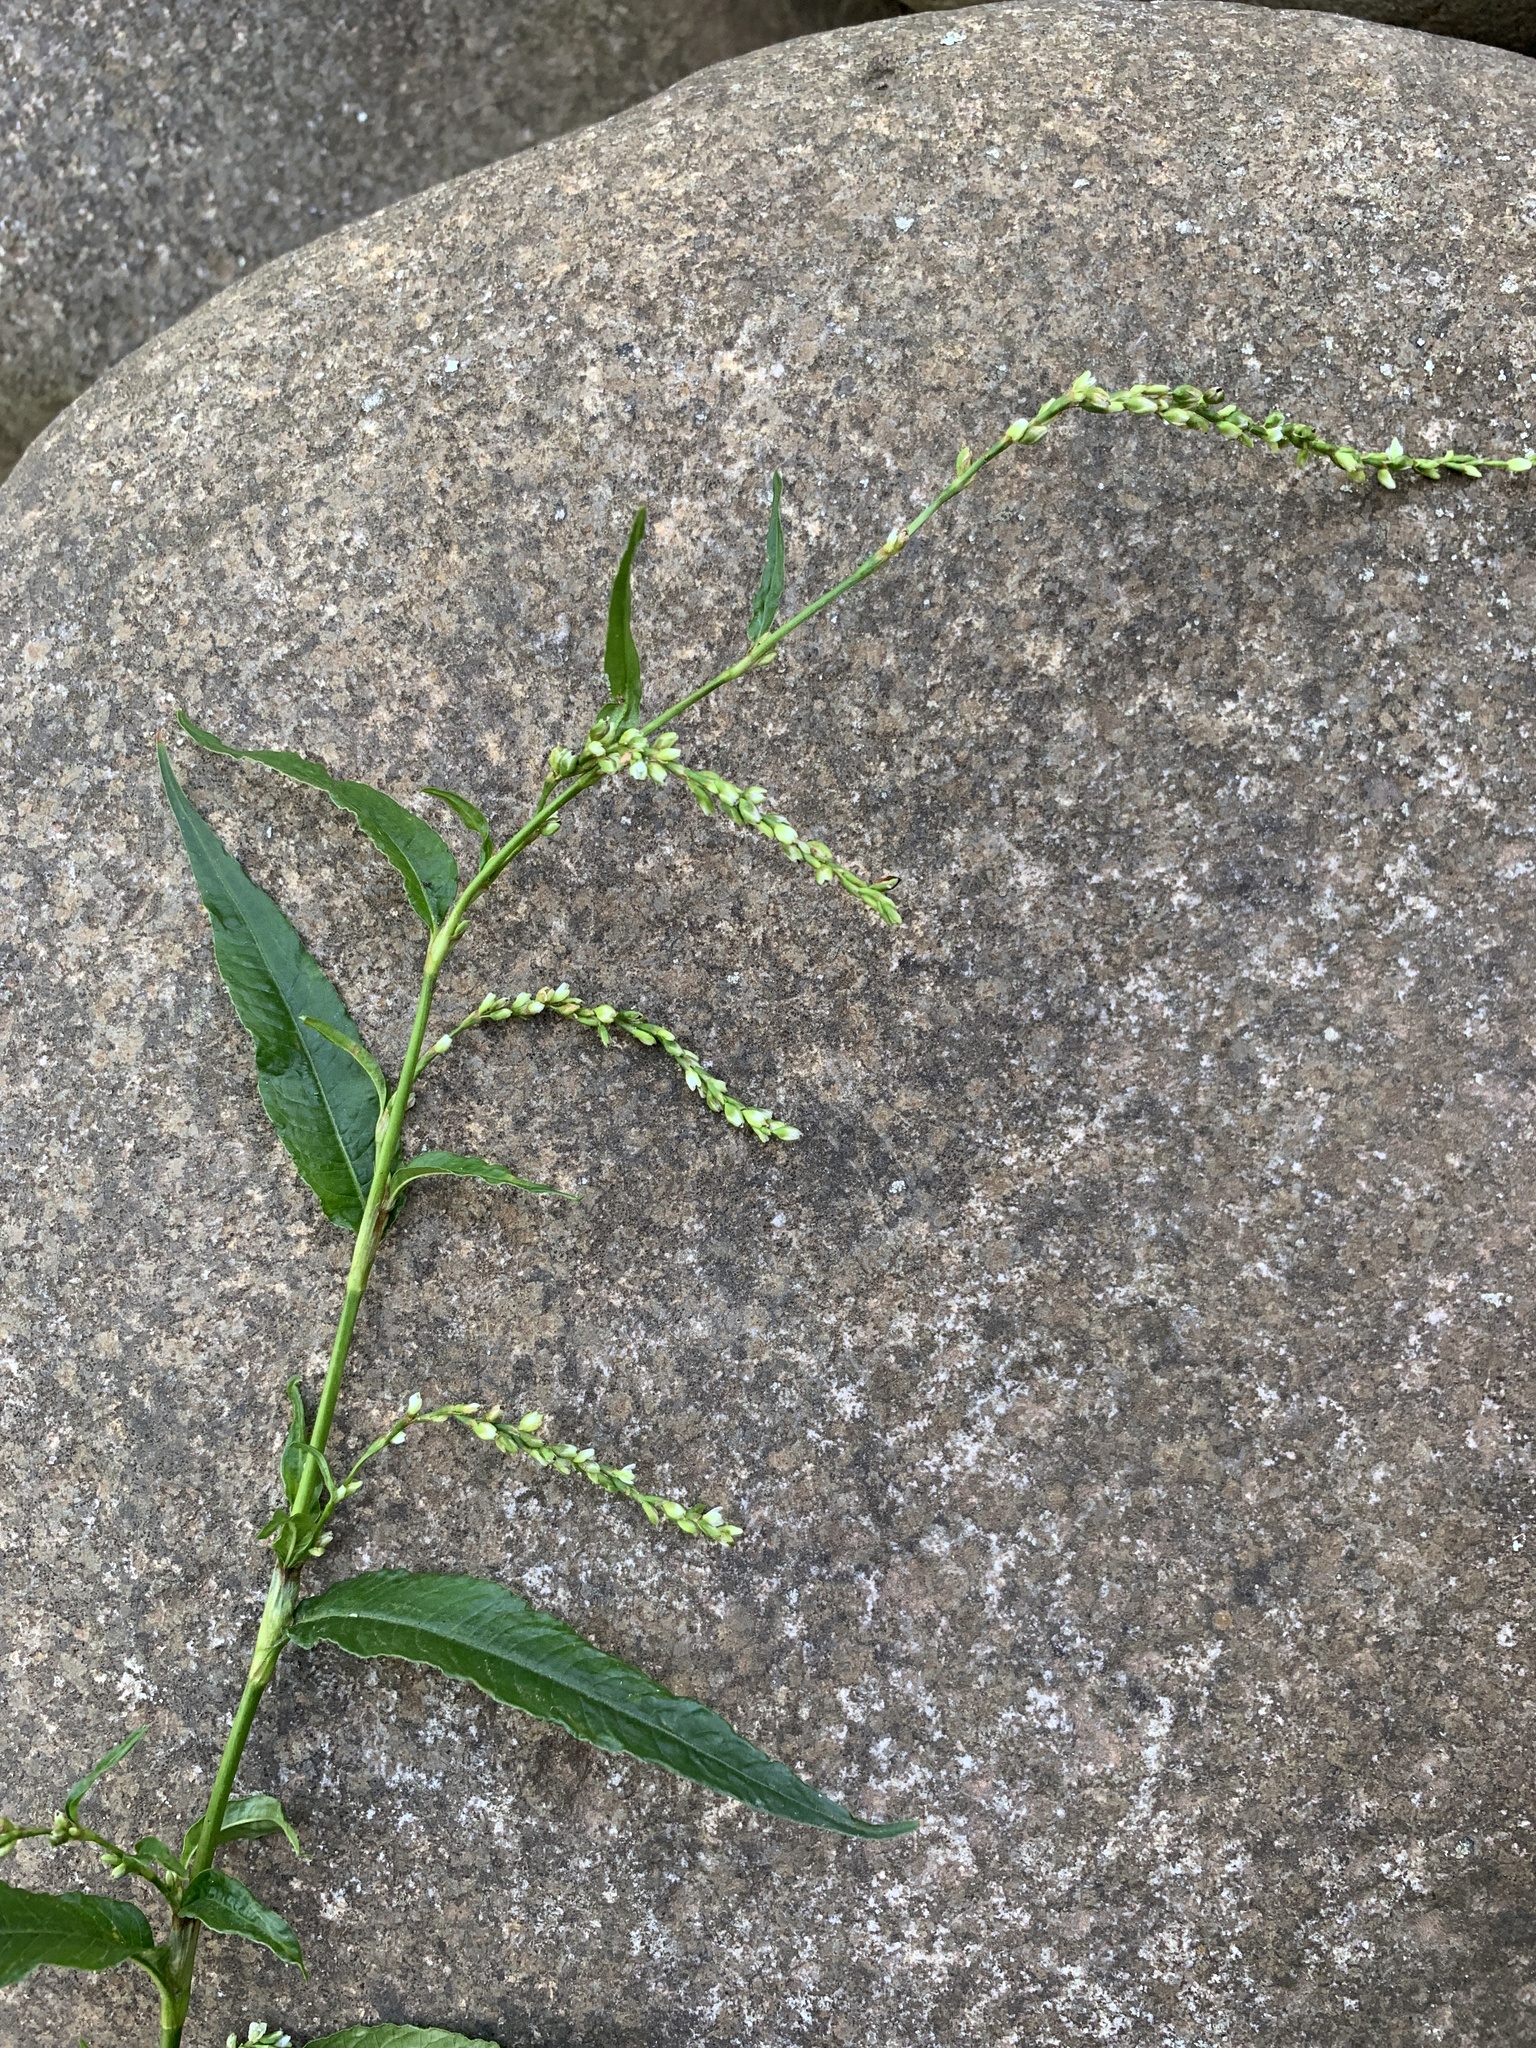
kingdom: Plantae
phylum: Tracheophyta
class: Magnoliopsida
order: Caryophyllales
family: Polygonaceae
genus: Persicaria
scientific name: Persicaria hydropiper
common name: Water-pepper
